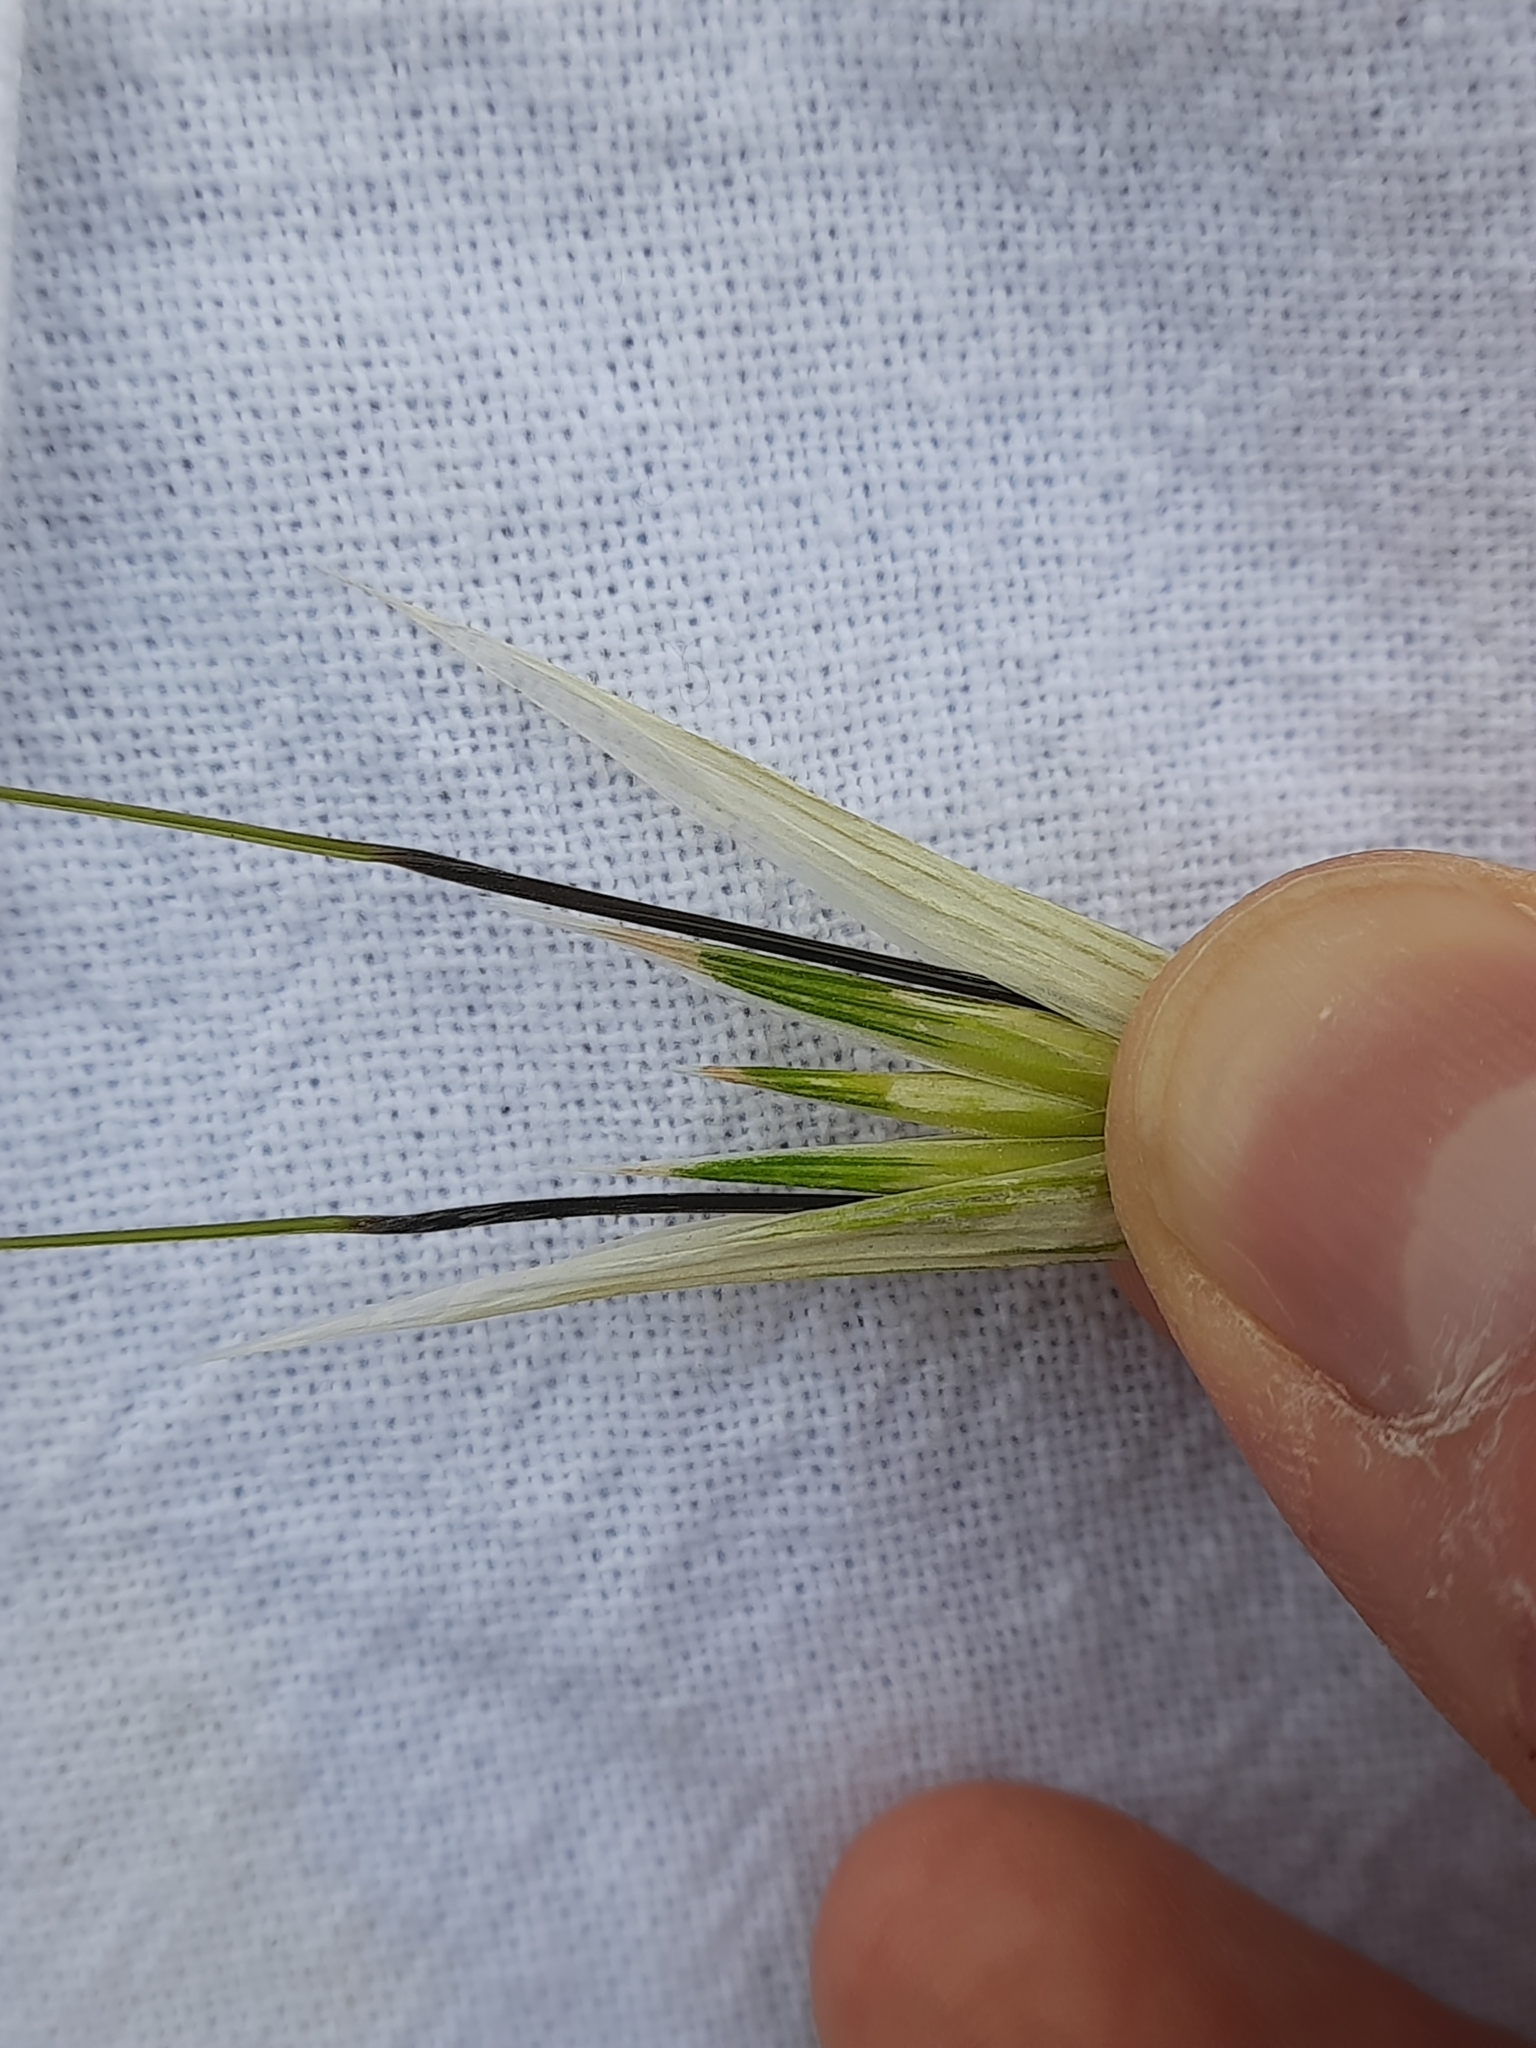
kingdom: Plantae
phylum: Tracheophyta
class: Liliopsida
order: Poales
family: Poaceae
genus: Avena
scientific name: Avena sterilis
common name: Animated oat
